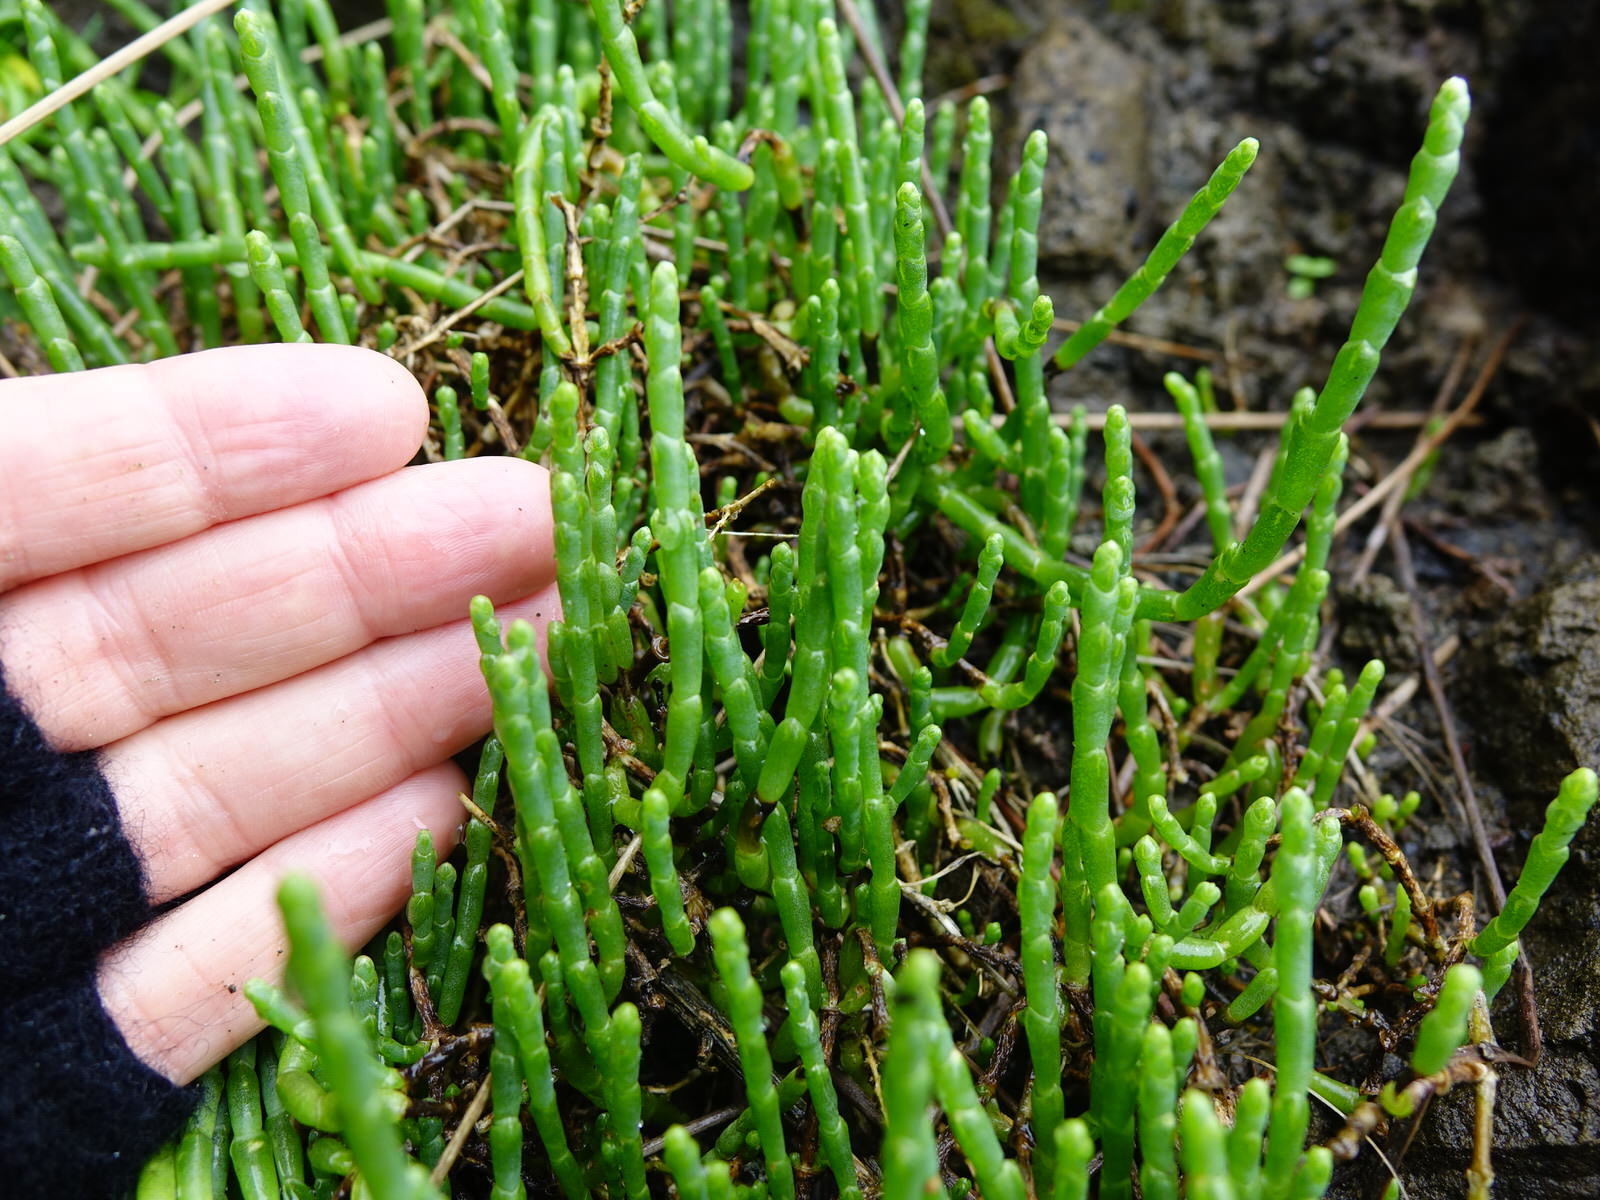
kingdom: Plantae
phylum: Tracheophyta
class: Magnoliopsida
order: Caryophyllales
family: Amaranthaceae
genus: Salicornia
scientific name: Salicornia quinqueflora
